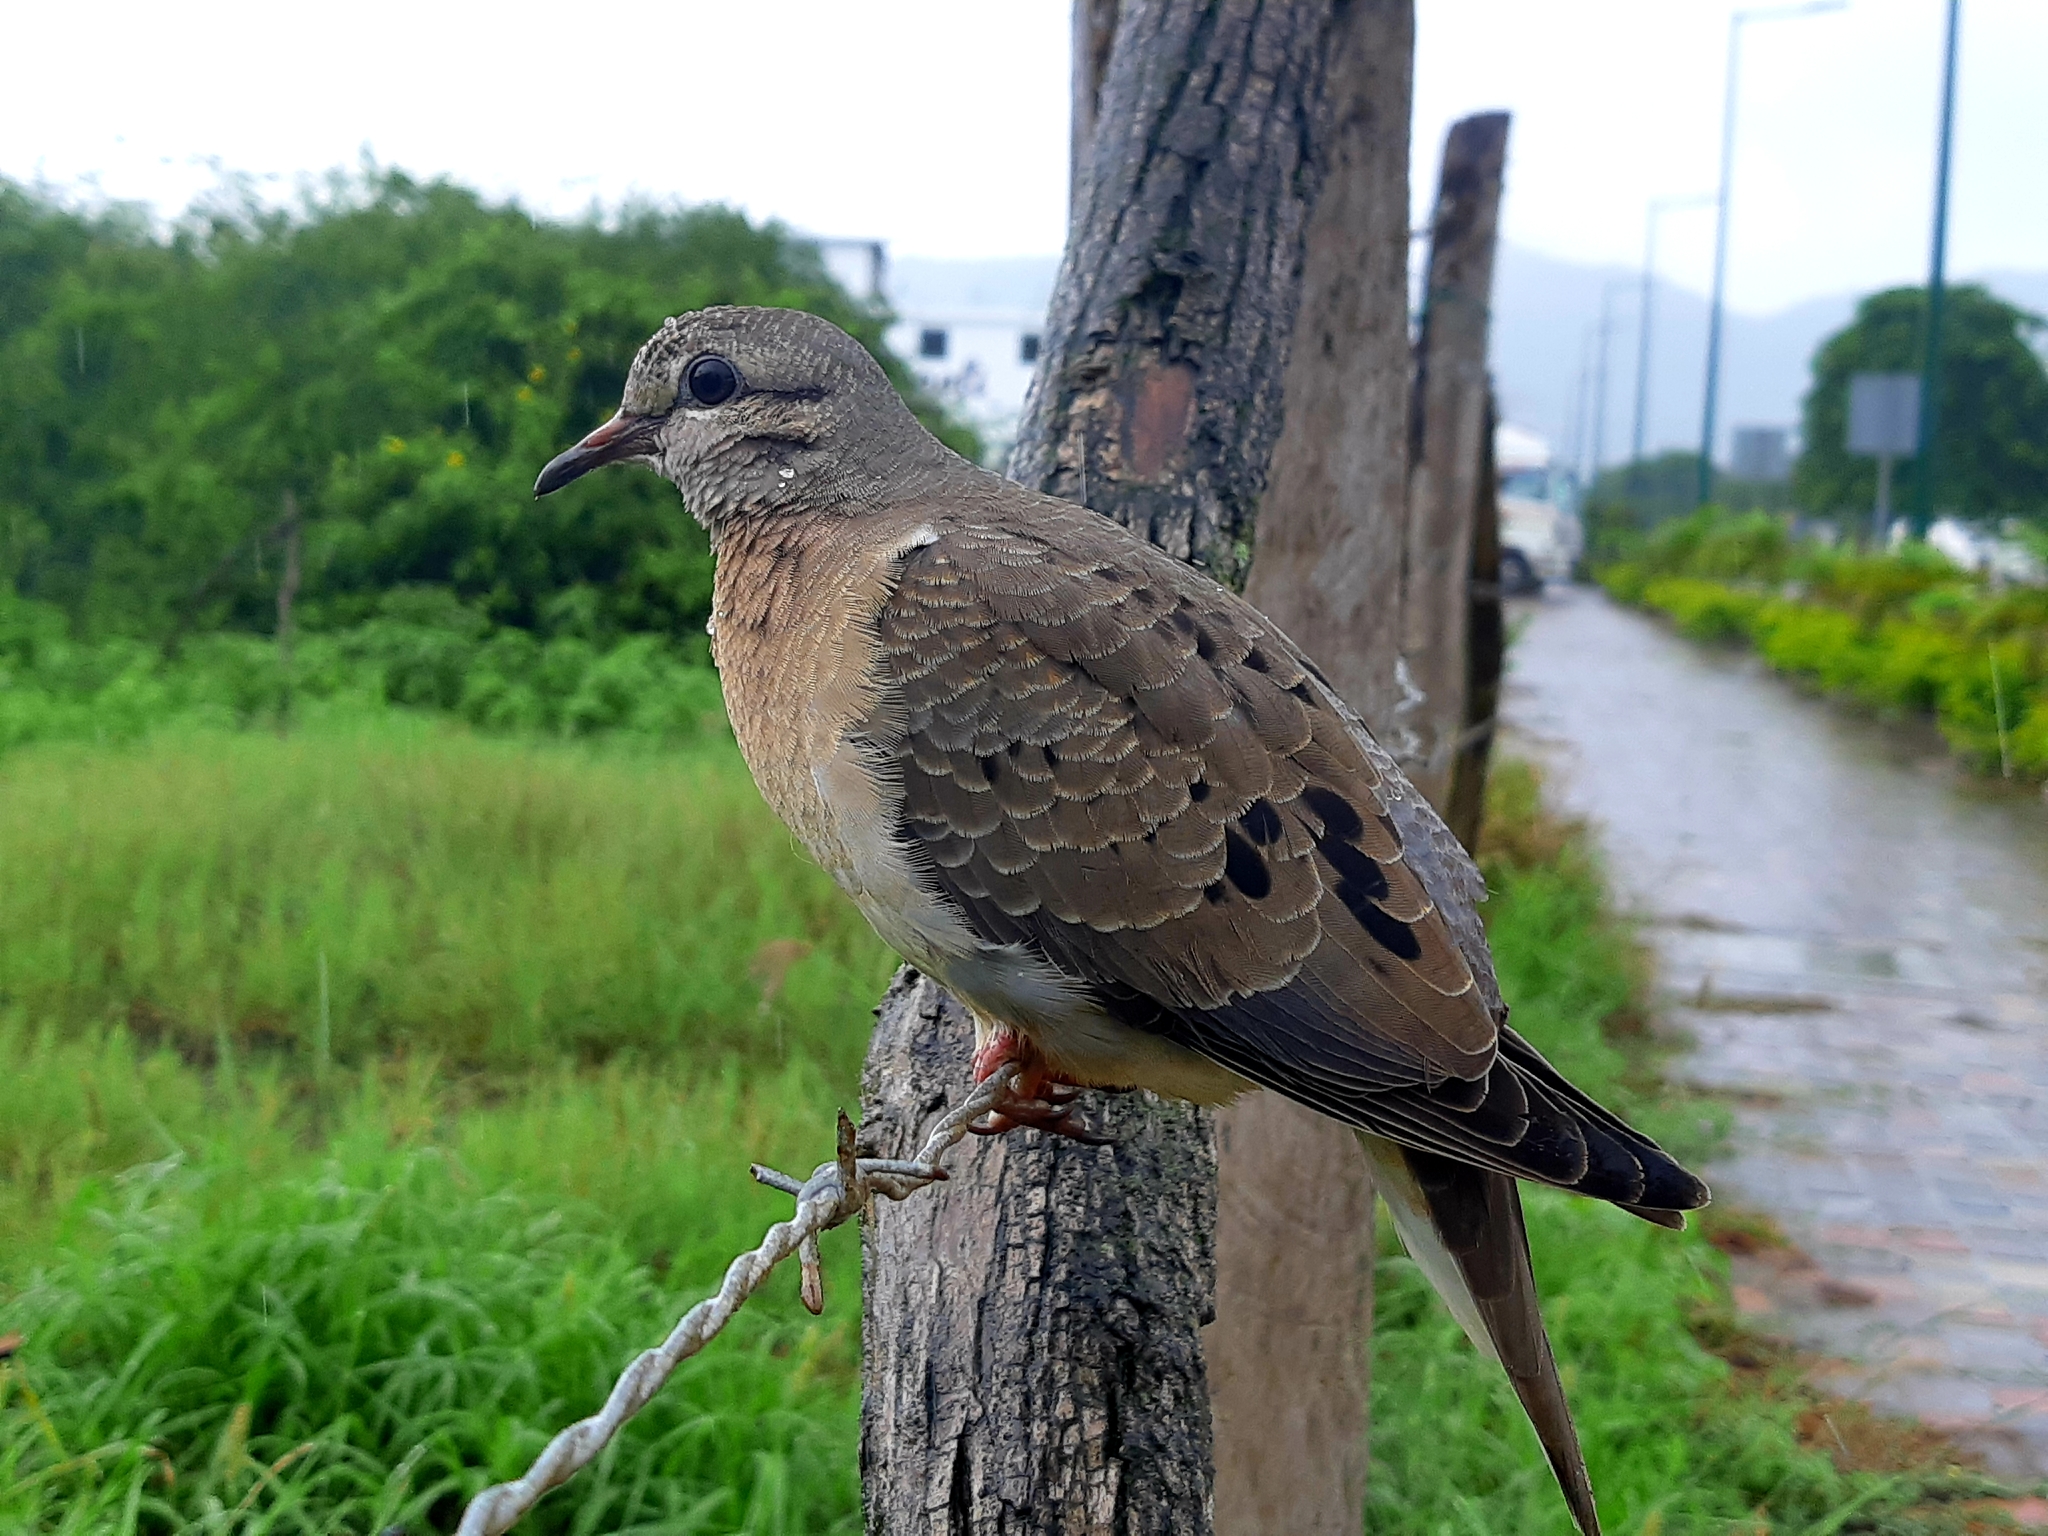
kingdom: Animalia
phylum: Chordata
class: Aves
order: Columbiformes
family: Columbidae
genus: Zenaida
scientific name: Zenaida auriculata
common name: Eared dove
